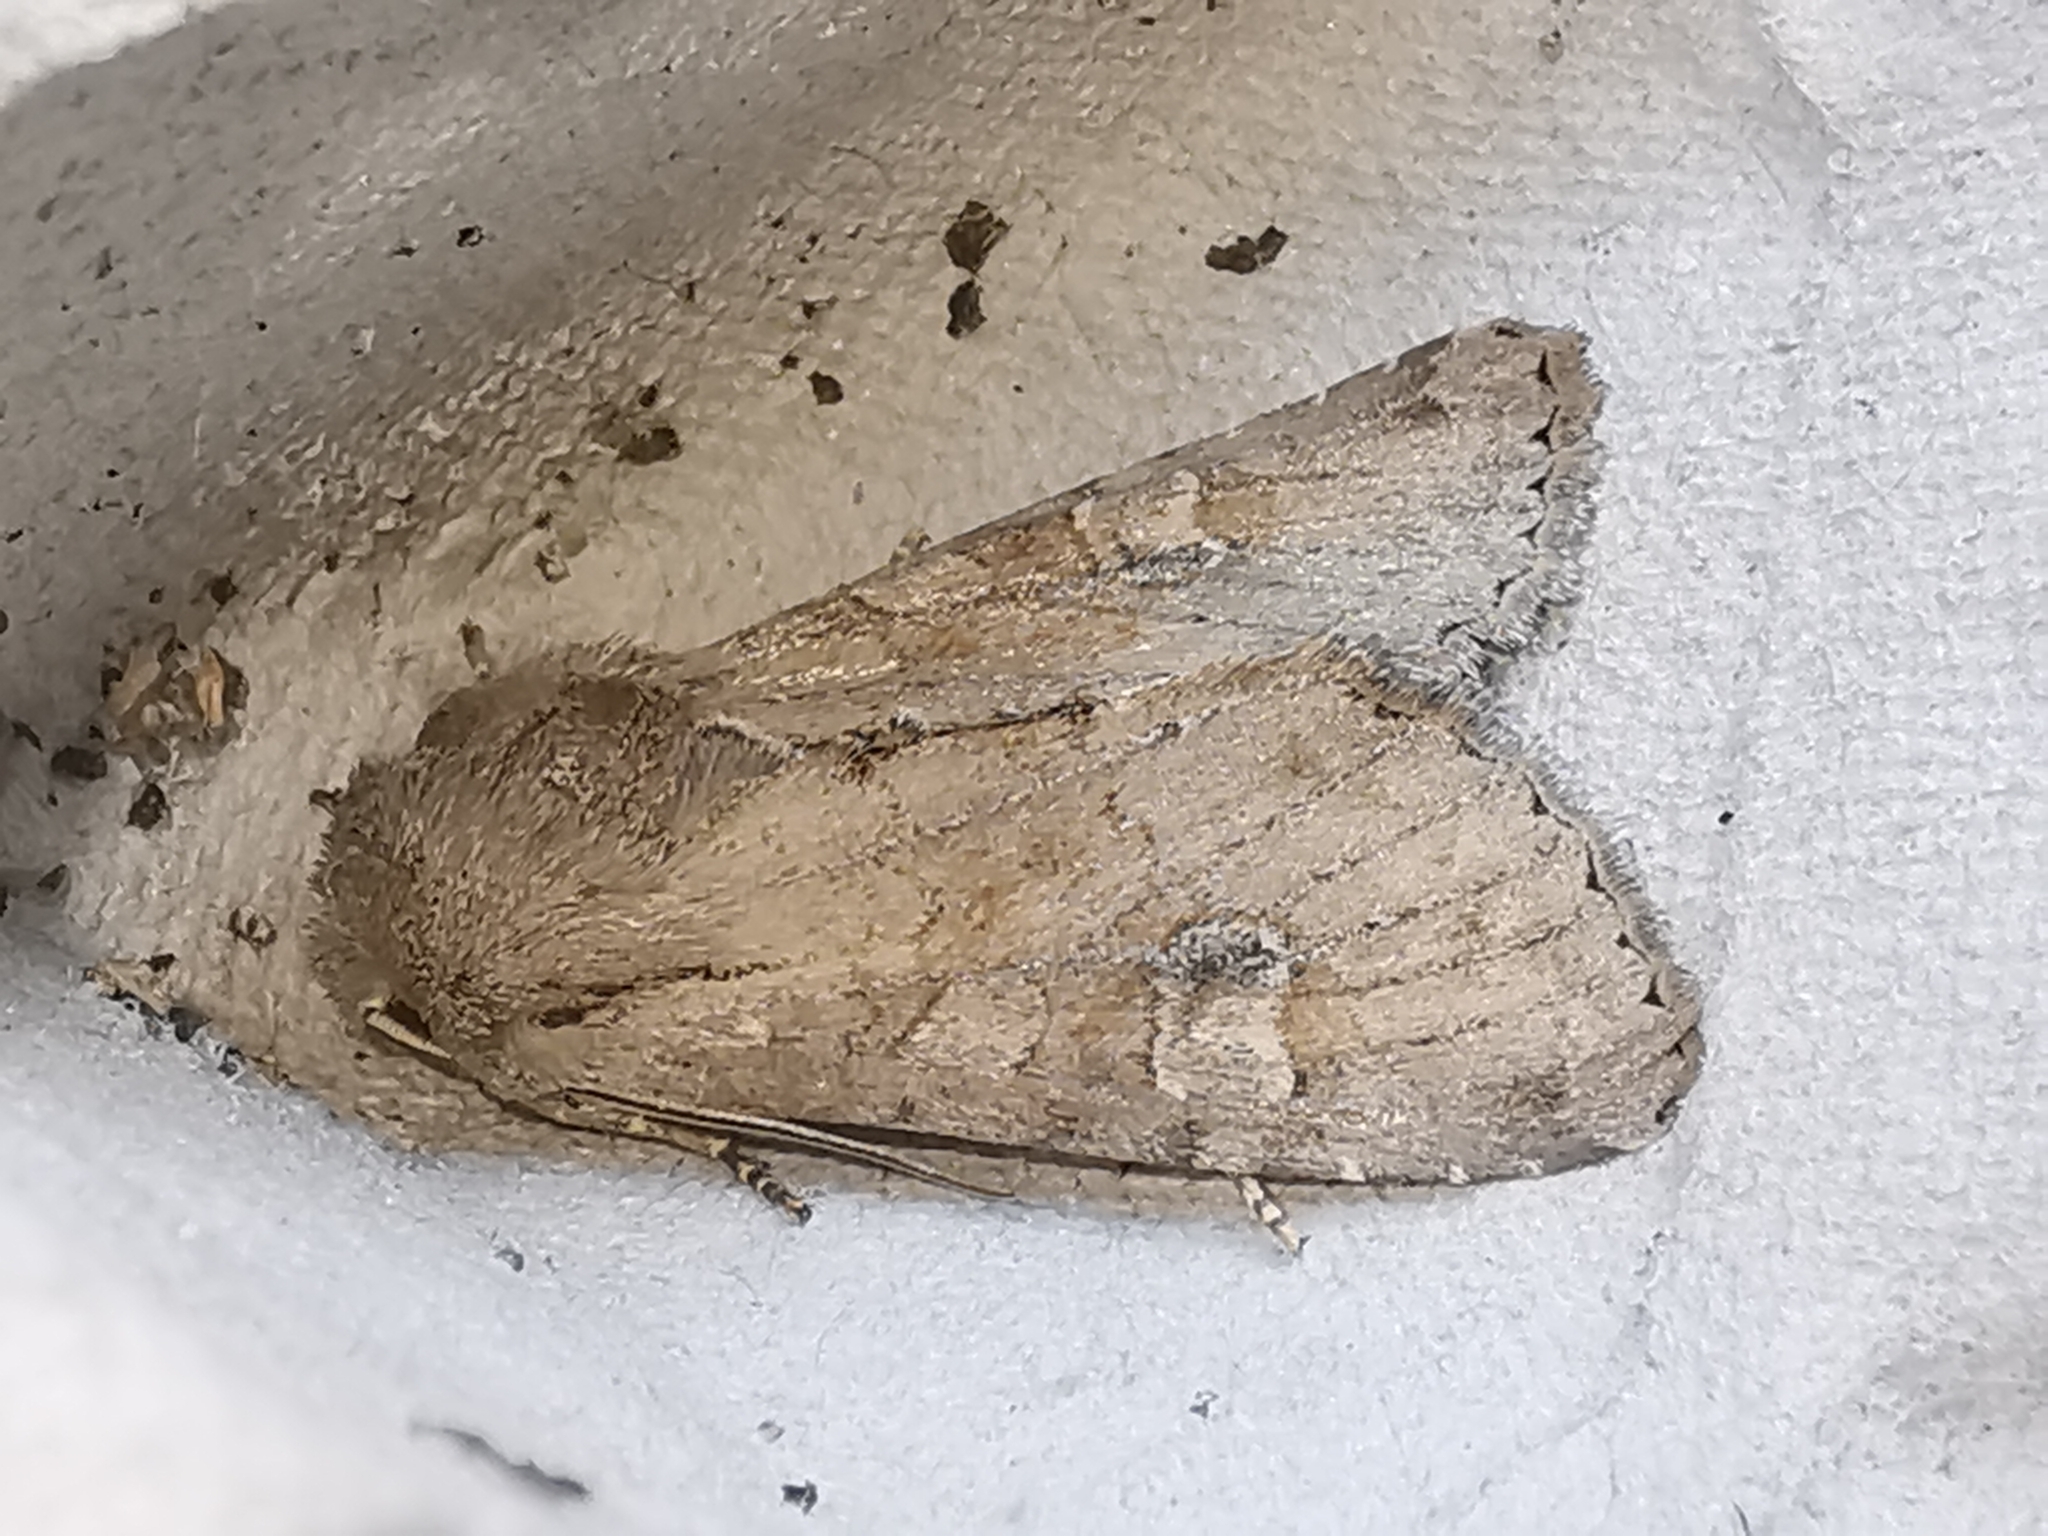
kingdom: Animalia
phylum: Arthropoda
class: Insecta
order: Lepidoptera
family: Noctuidae
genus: Apamea
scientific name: Apamea sordens
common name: Rustic shoulder-knot
